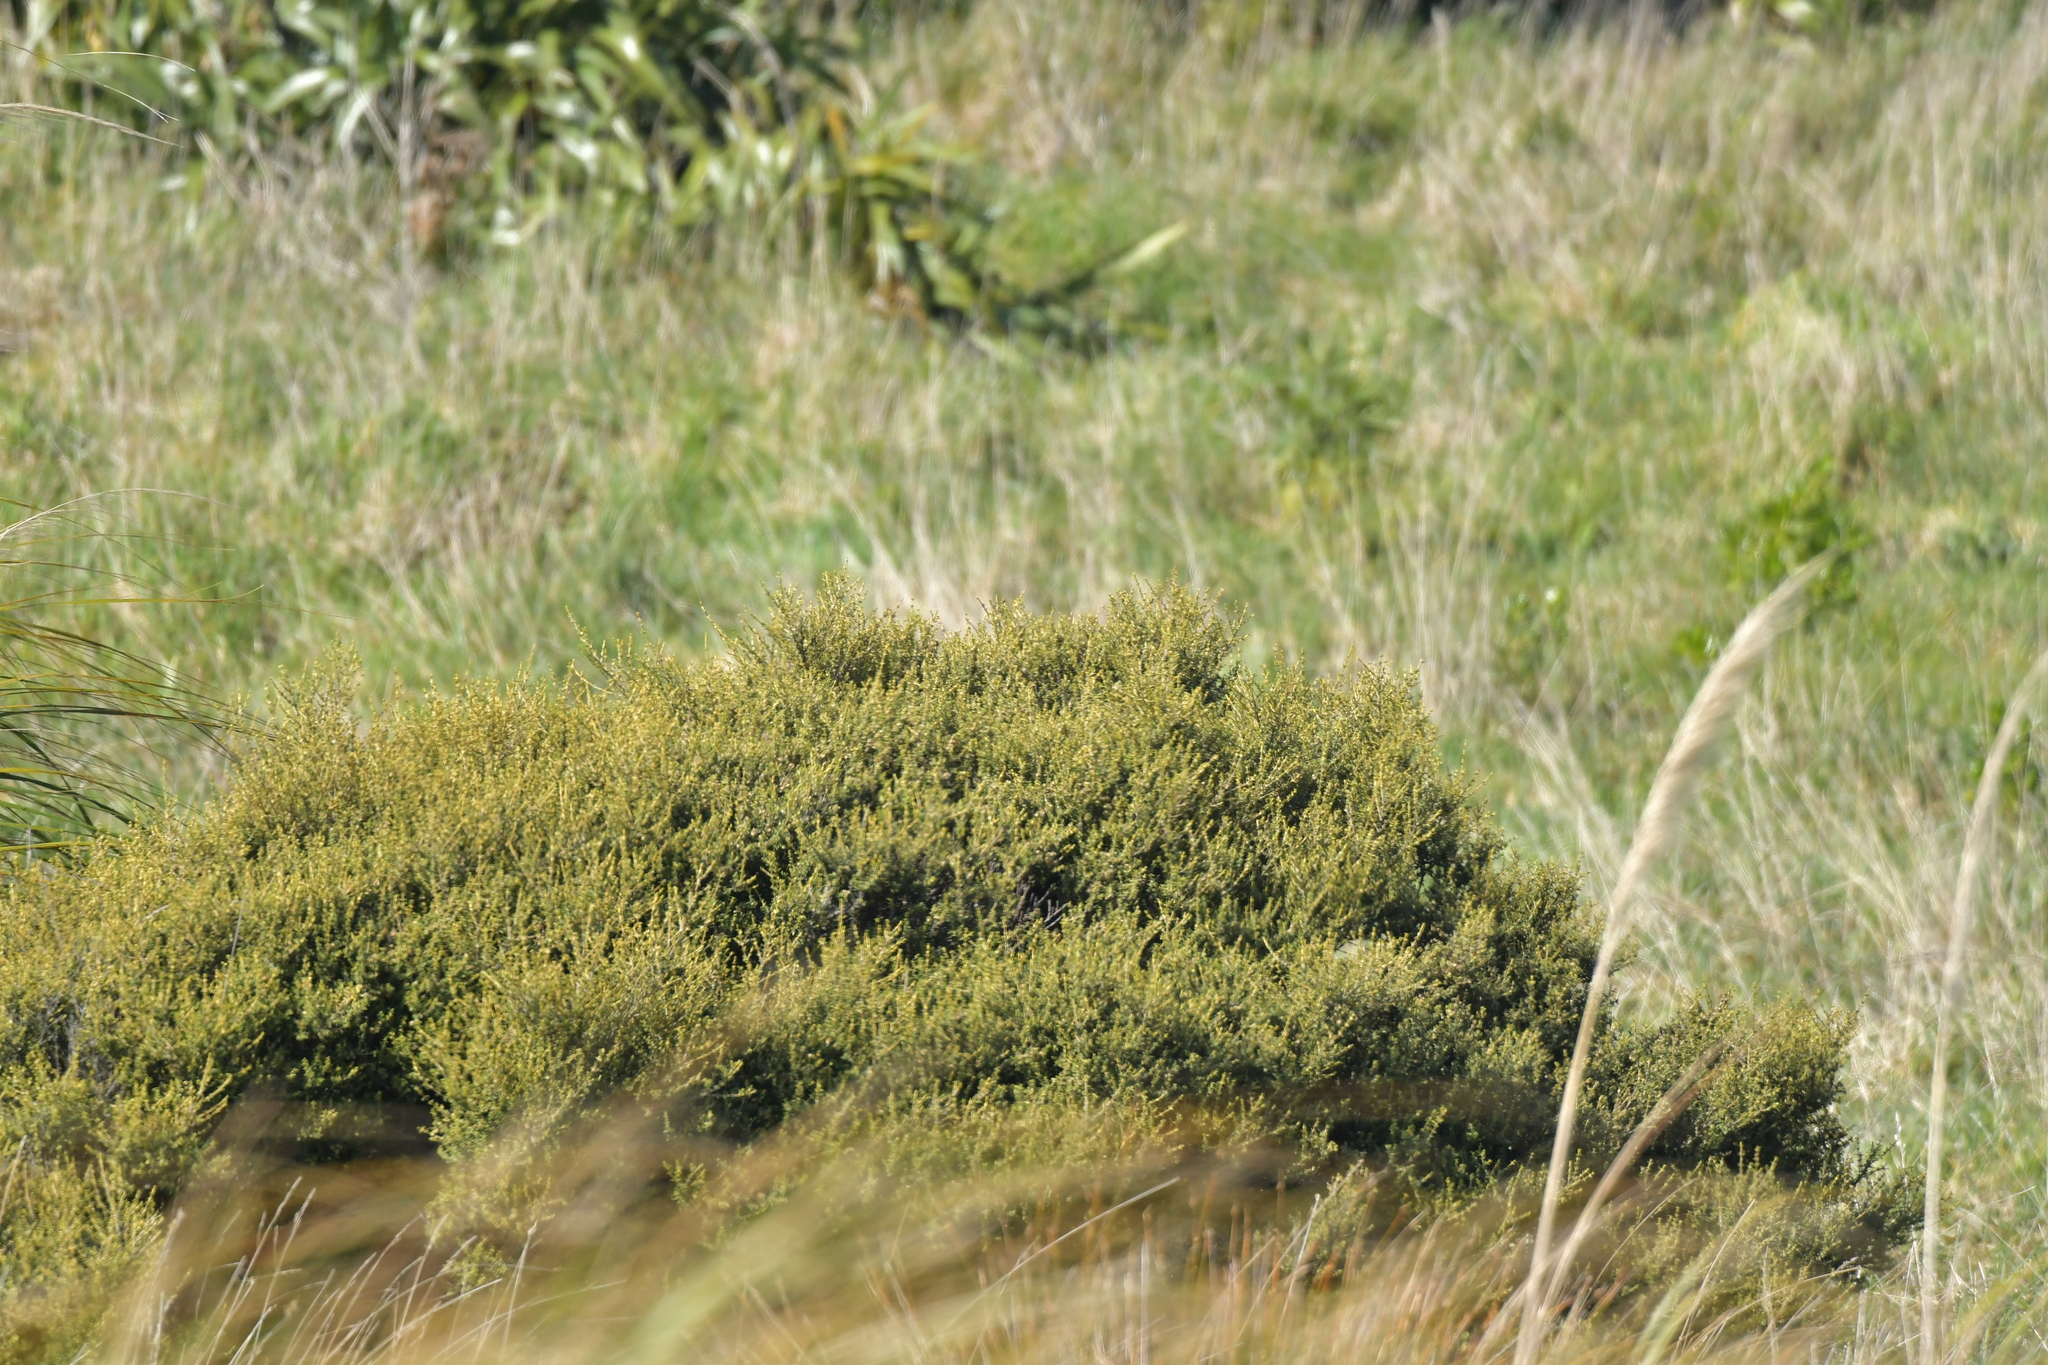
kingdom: Plantae
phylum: Tracheophyta
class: Magnoliopsida
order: Asterales
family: Asteraceae
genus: Olearia
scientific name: Olearia solandri
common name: Coastal daisybush
